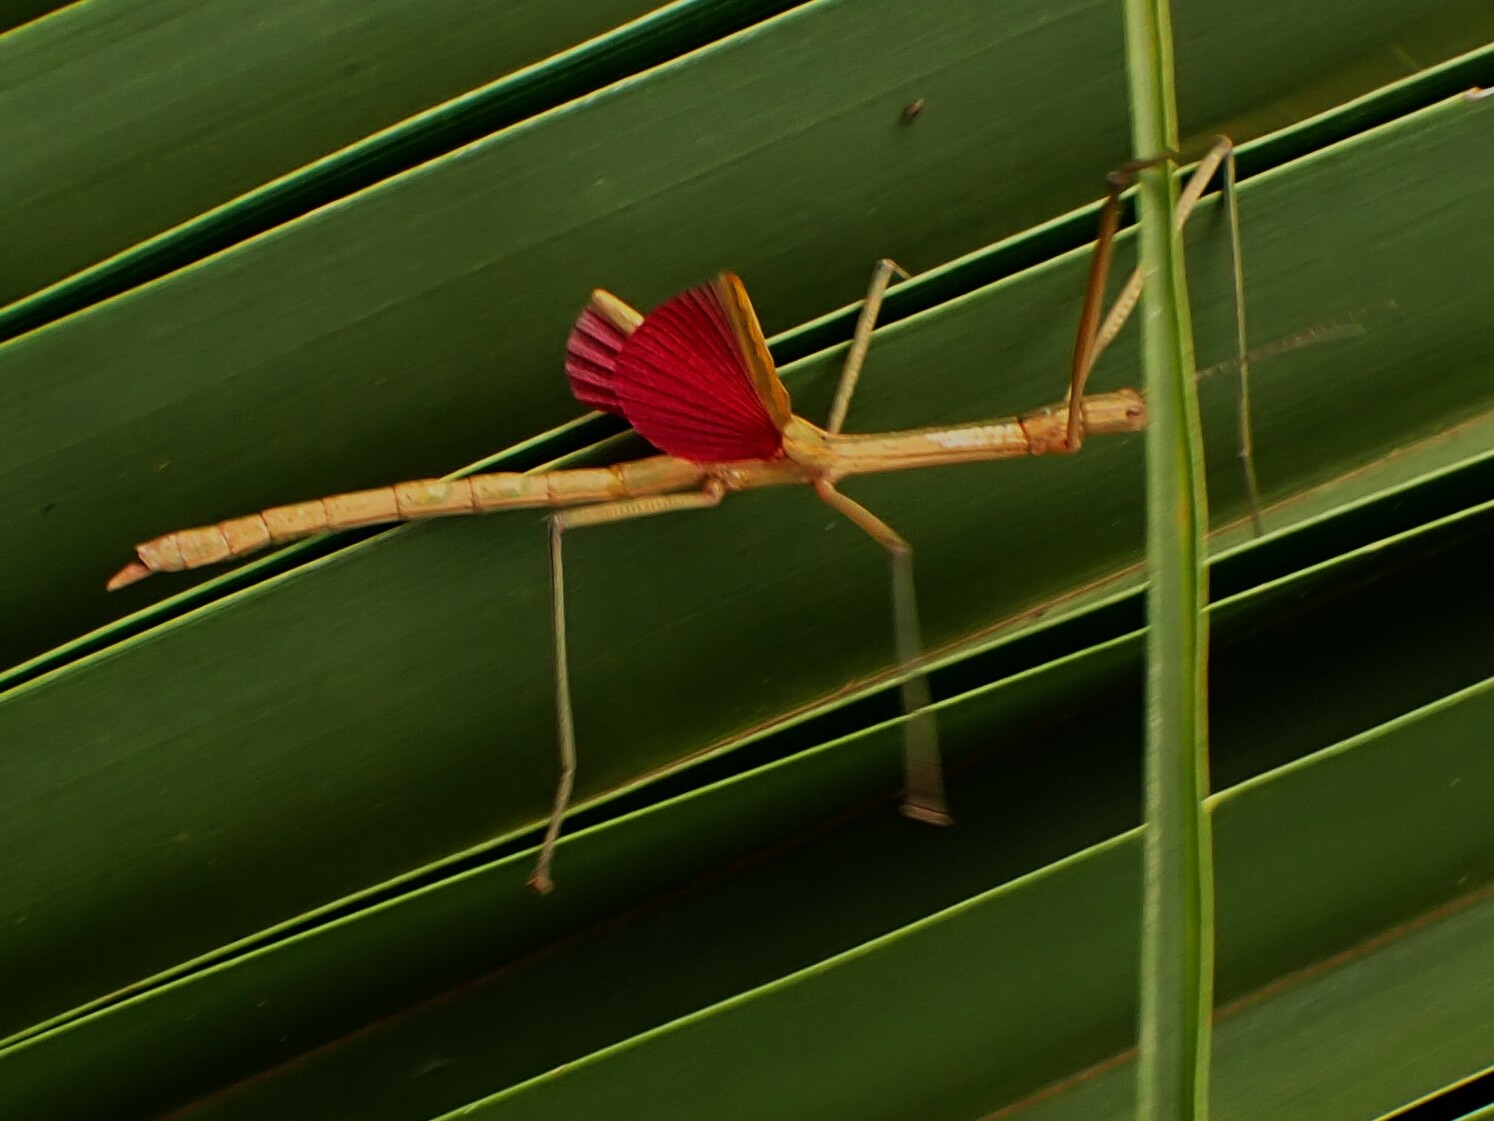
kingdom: Animalia
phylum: Arthropoda
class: Insecta
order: Phasmida
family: Phasmatidae
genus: Graeffea
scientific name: Graeffea crouanii
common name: Coconut stick insect
